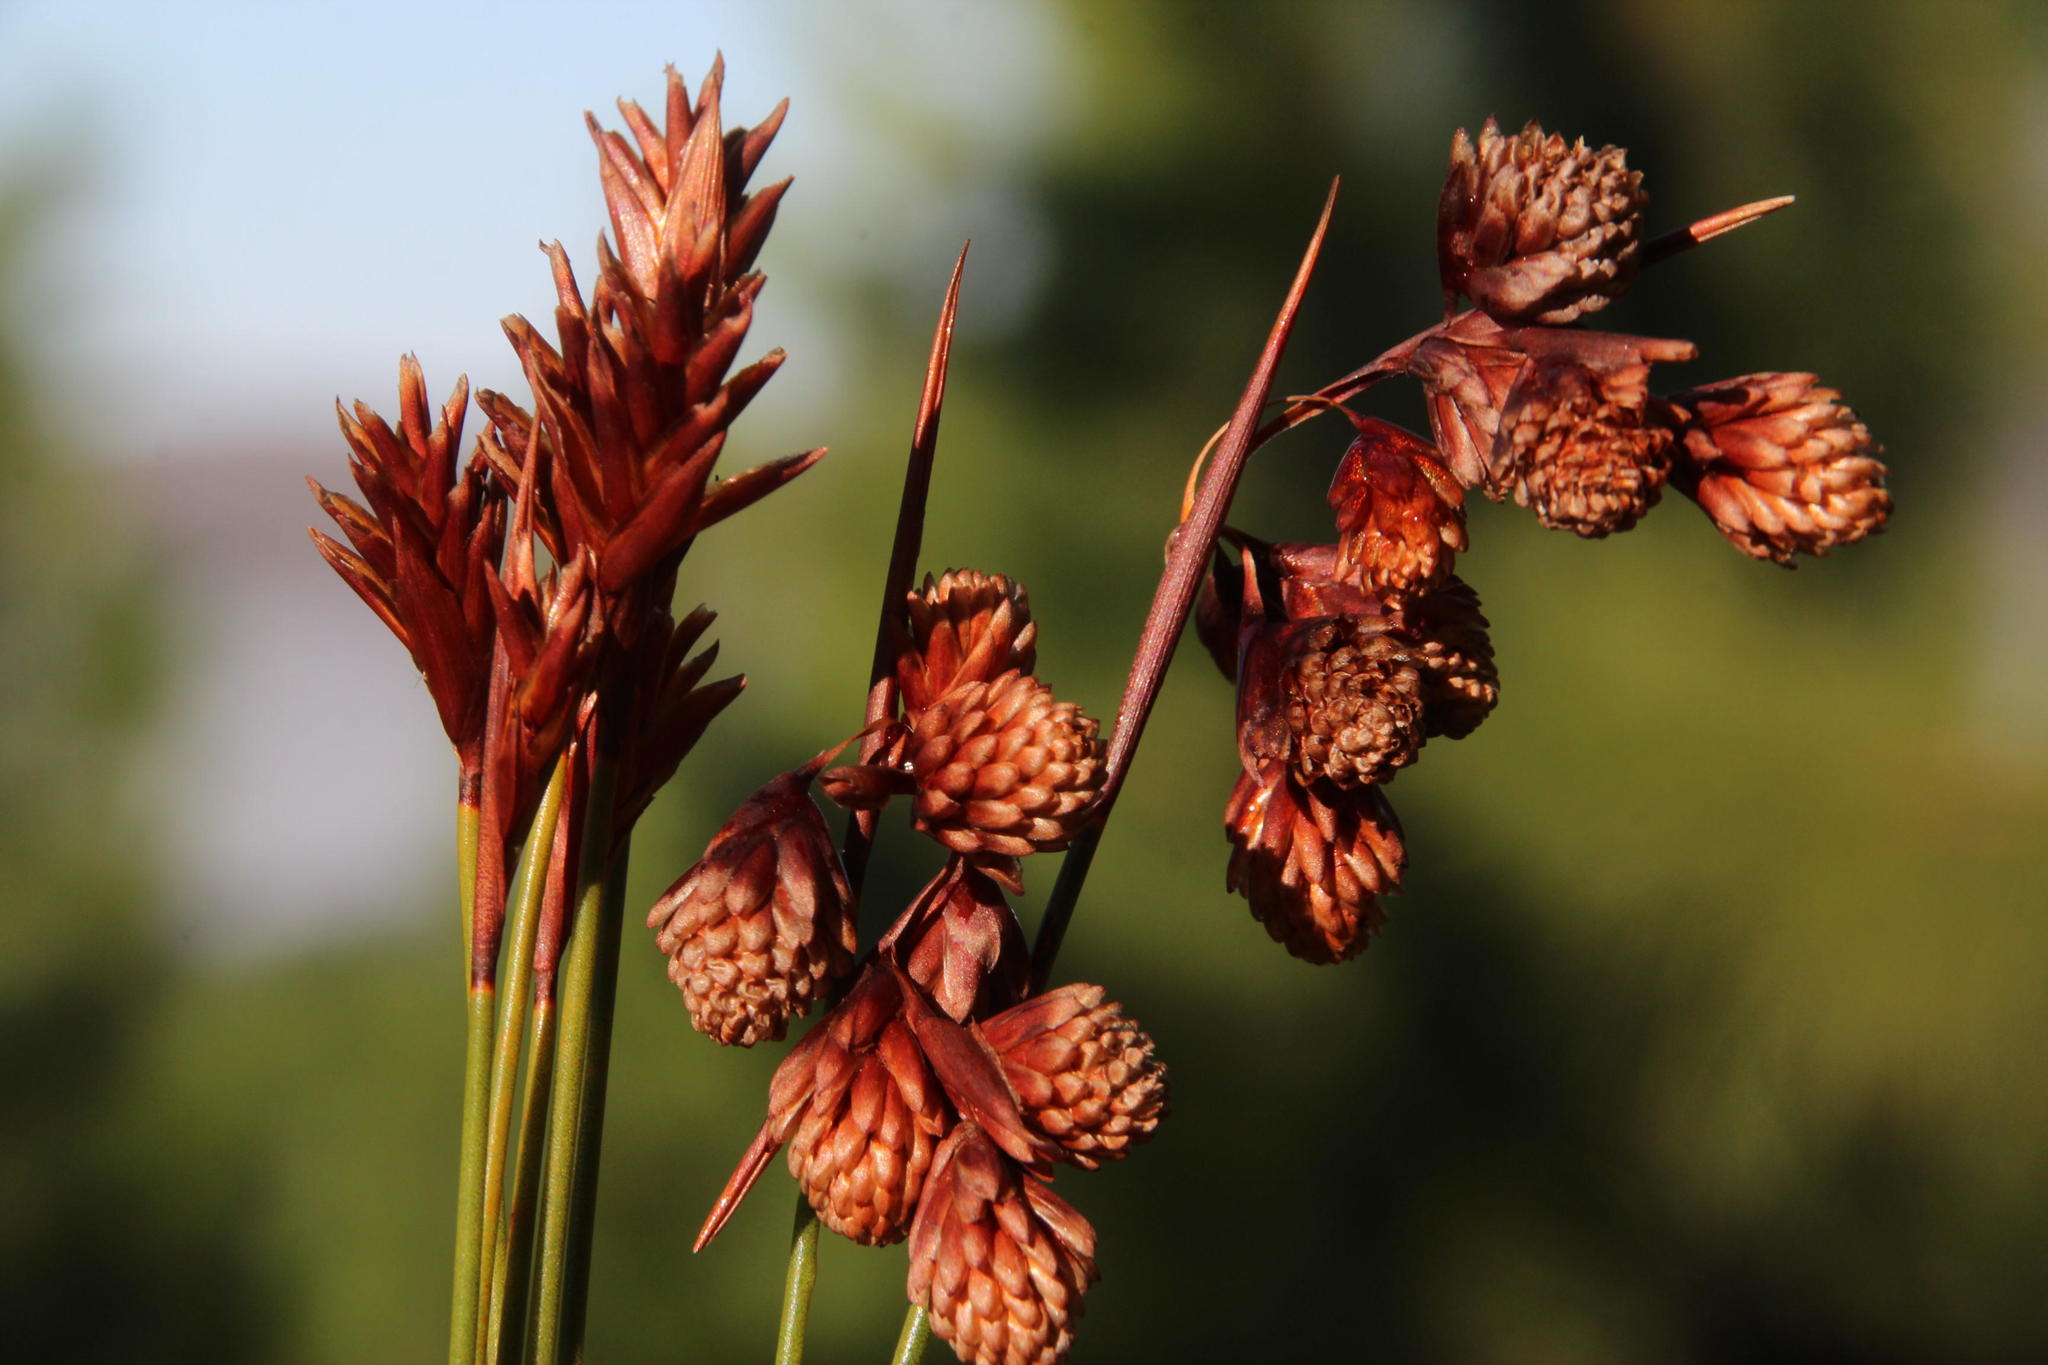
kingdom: Plantae
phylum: Tracheophyta
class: Liliopsida
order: Poales
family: Restionaceae
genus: Staberoha
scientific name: Staberoha cernua
